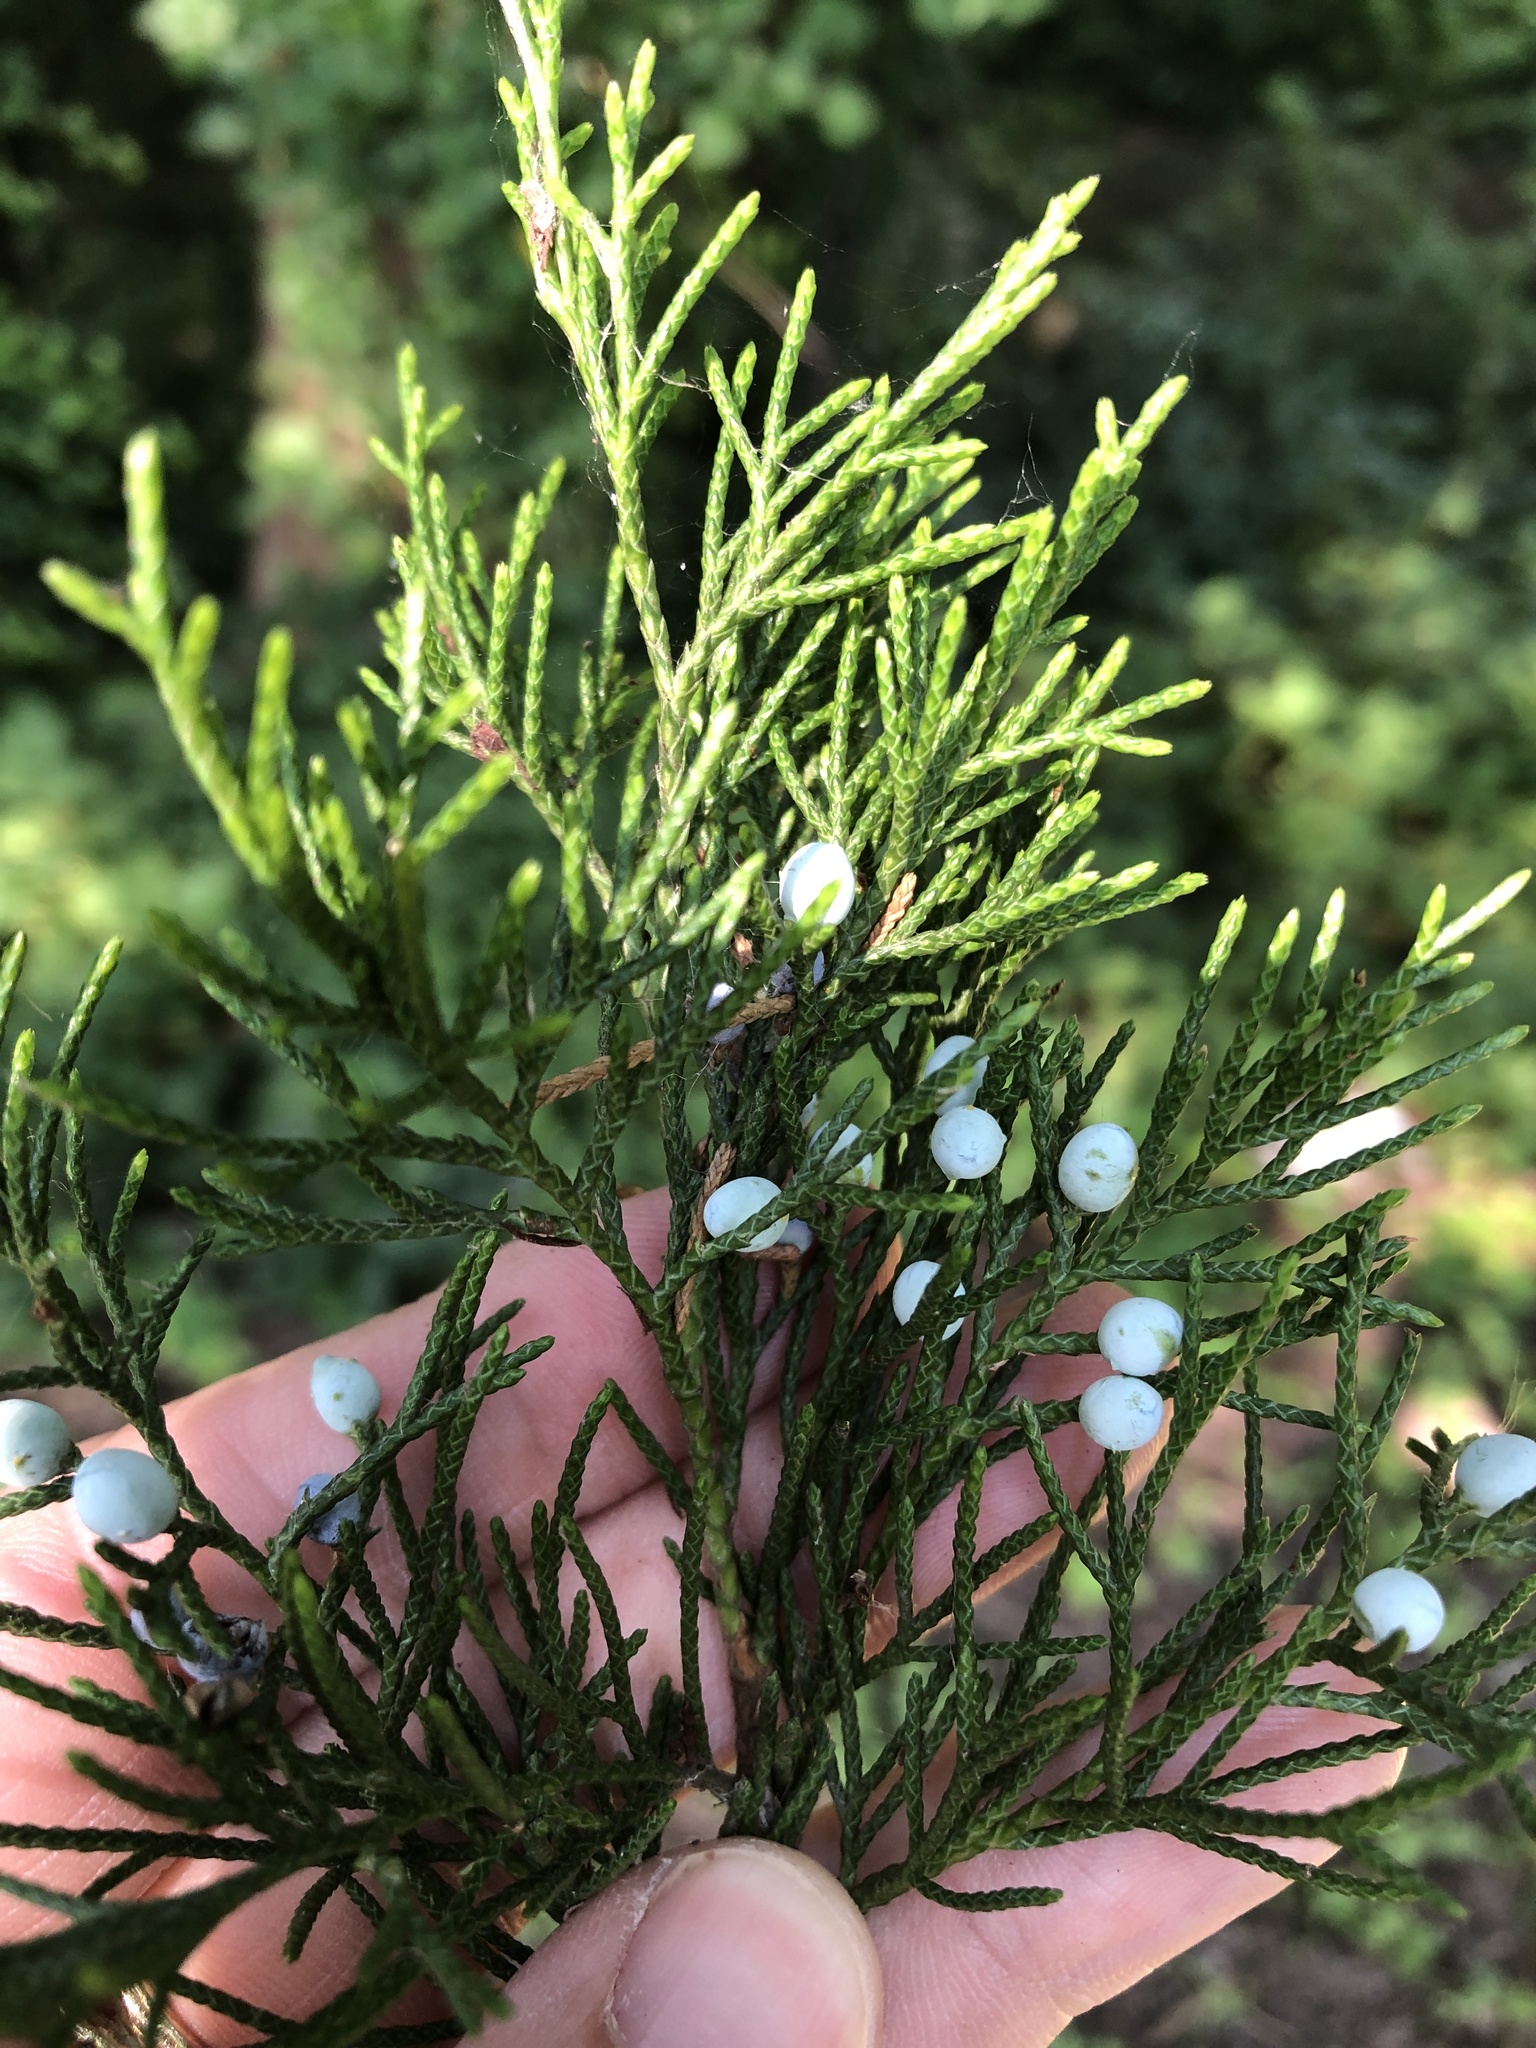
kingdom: Plantae
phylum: Tracheophyta
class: Pinopsida
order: Pinales
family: Cupressaceae
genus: Juniperus
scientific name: Juniperus virginiana
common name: Red juniper
